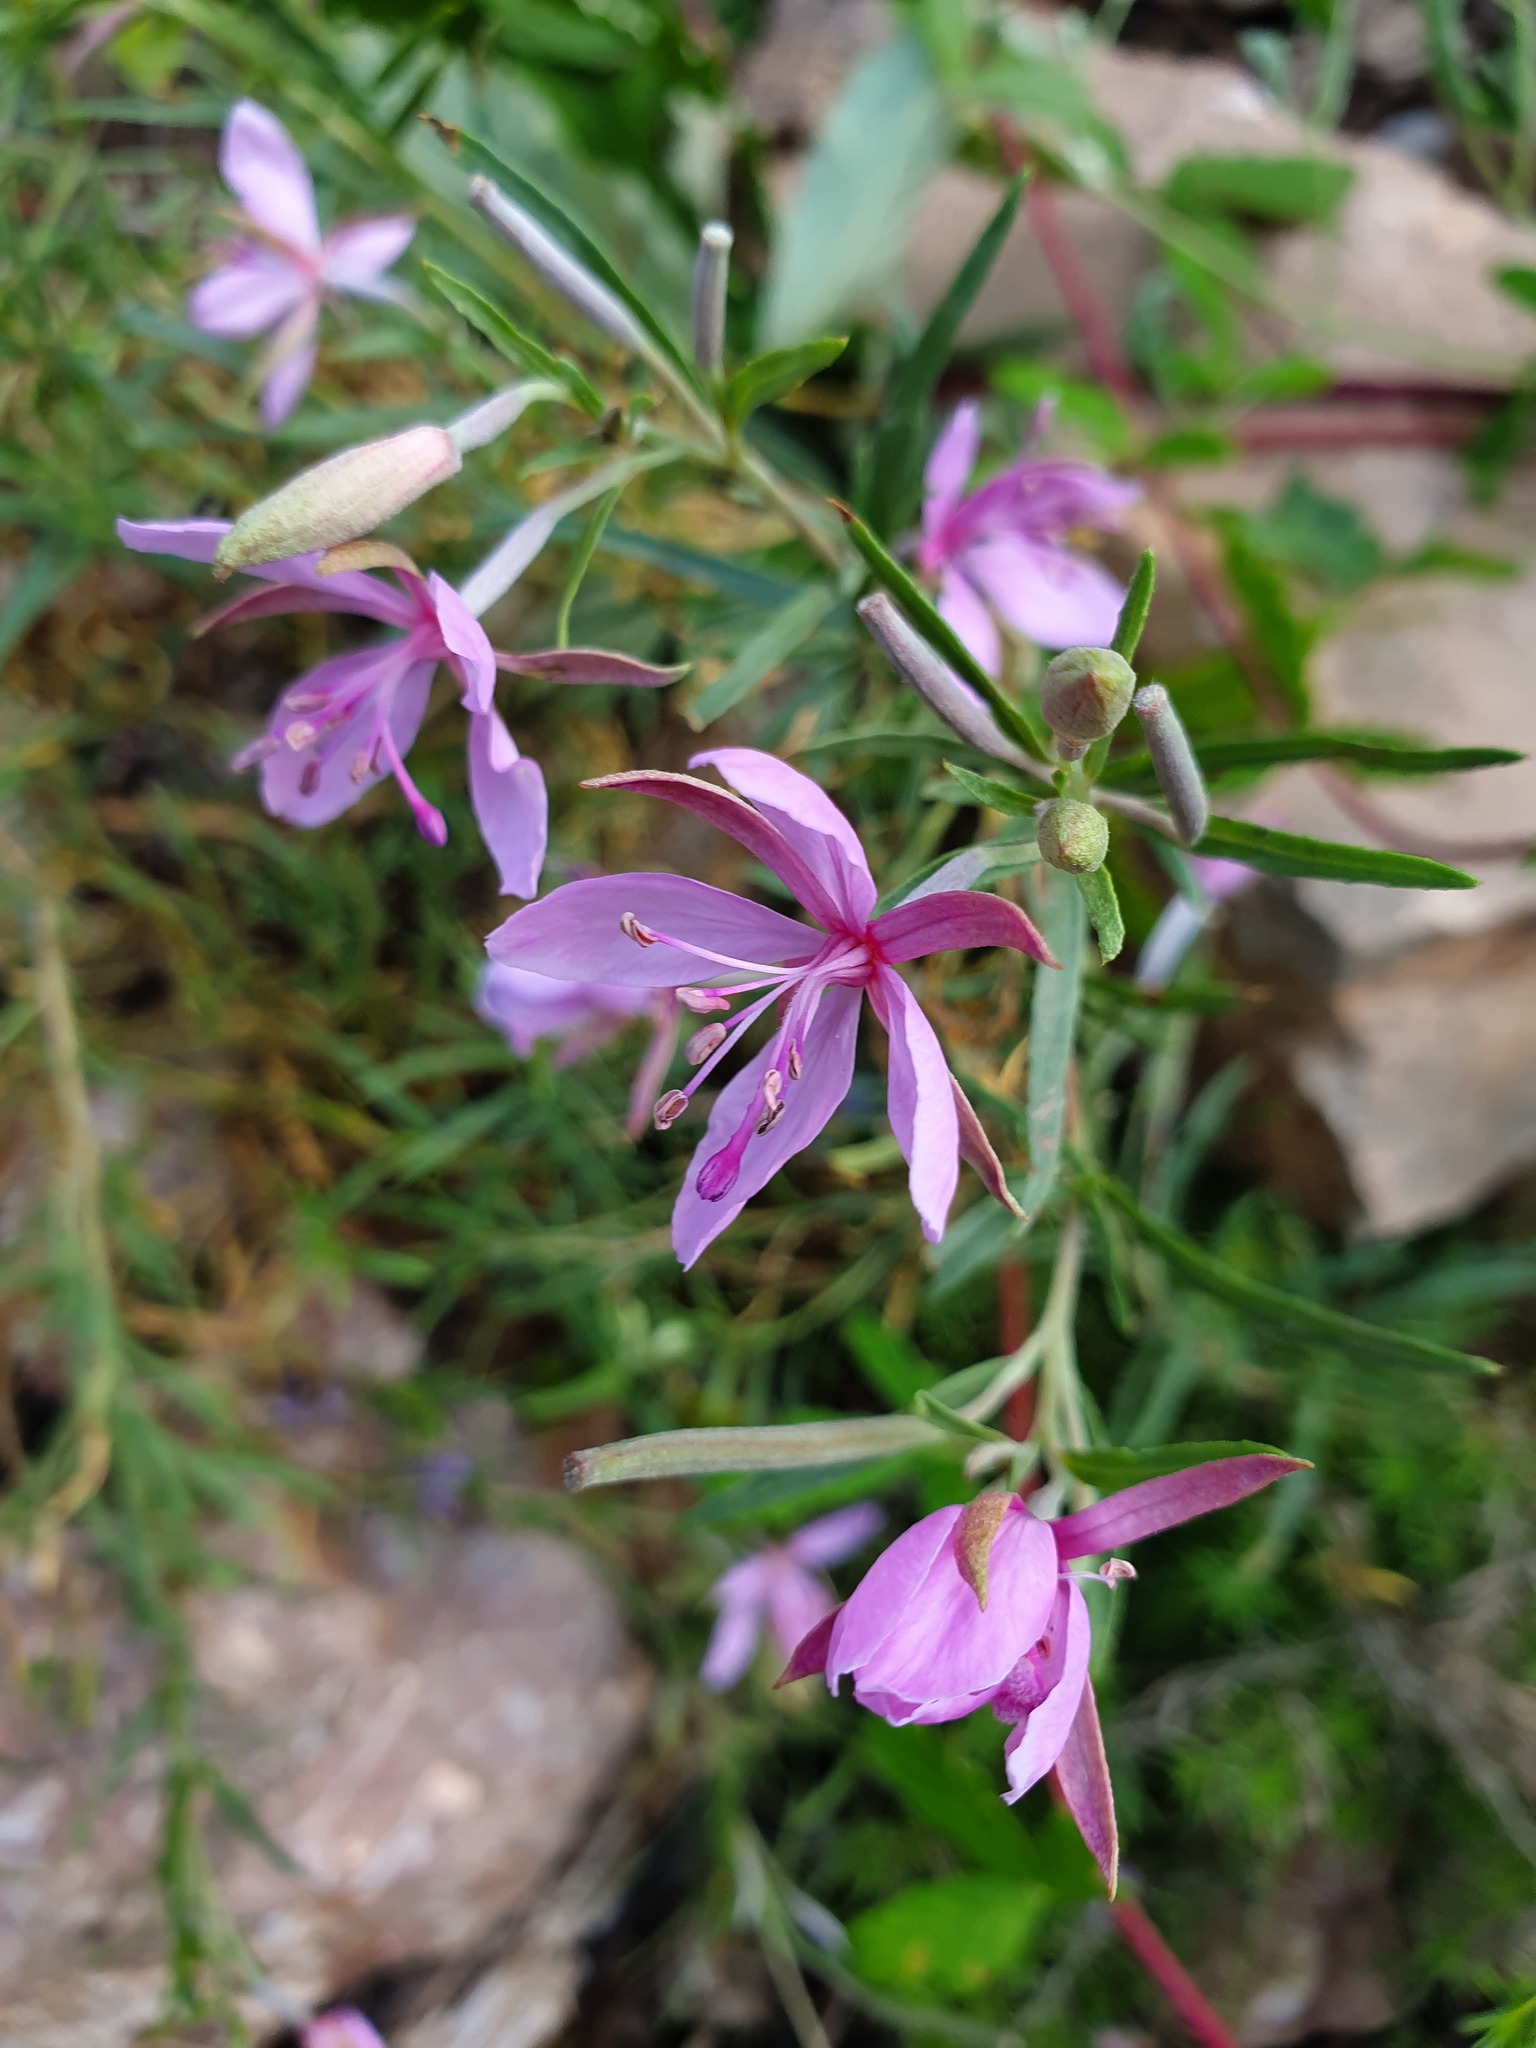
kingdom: Plantae
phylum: Tracheophyta
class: Magnoliopsida
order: Myrtales
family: Onagraceae
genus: Chamaenerion
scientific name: Chamaenerion dodonaei
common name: Rosemary-leaved willowherb
